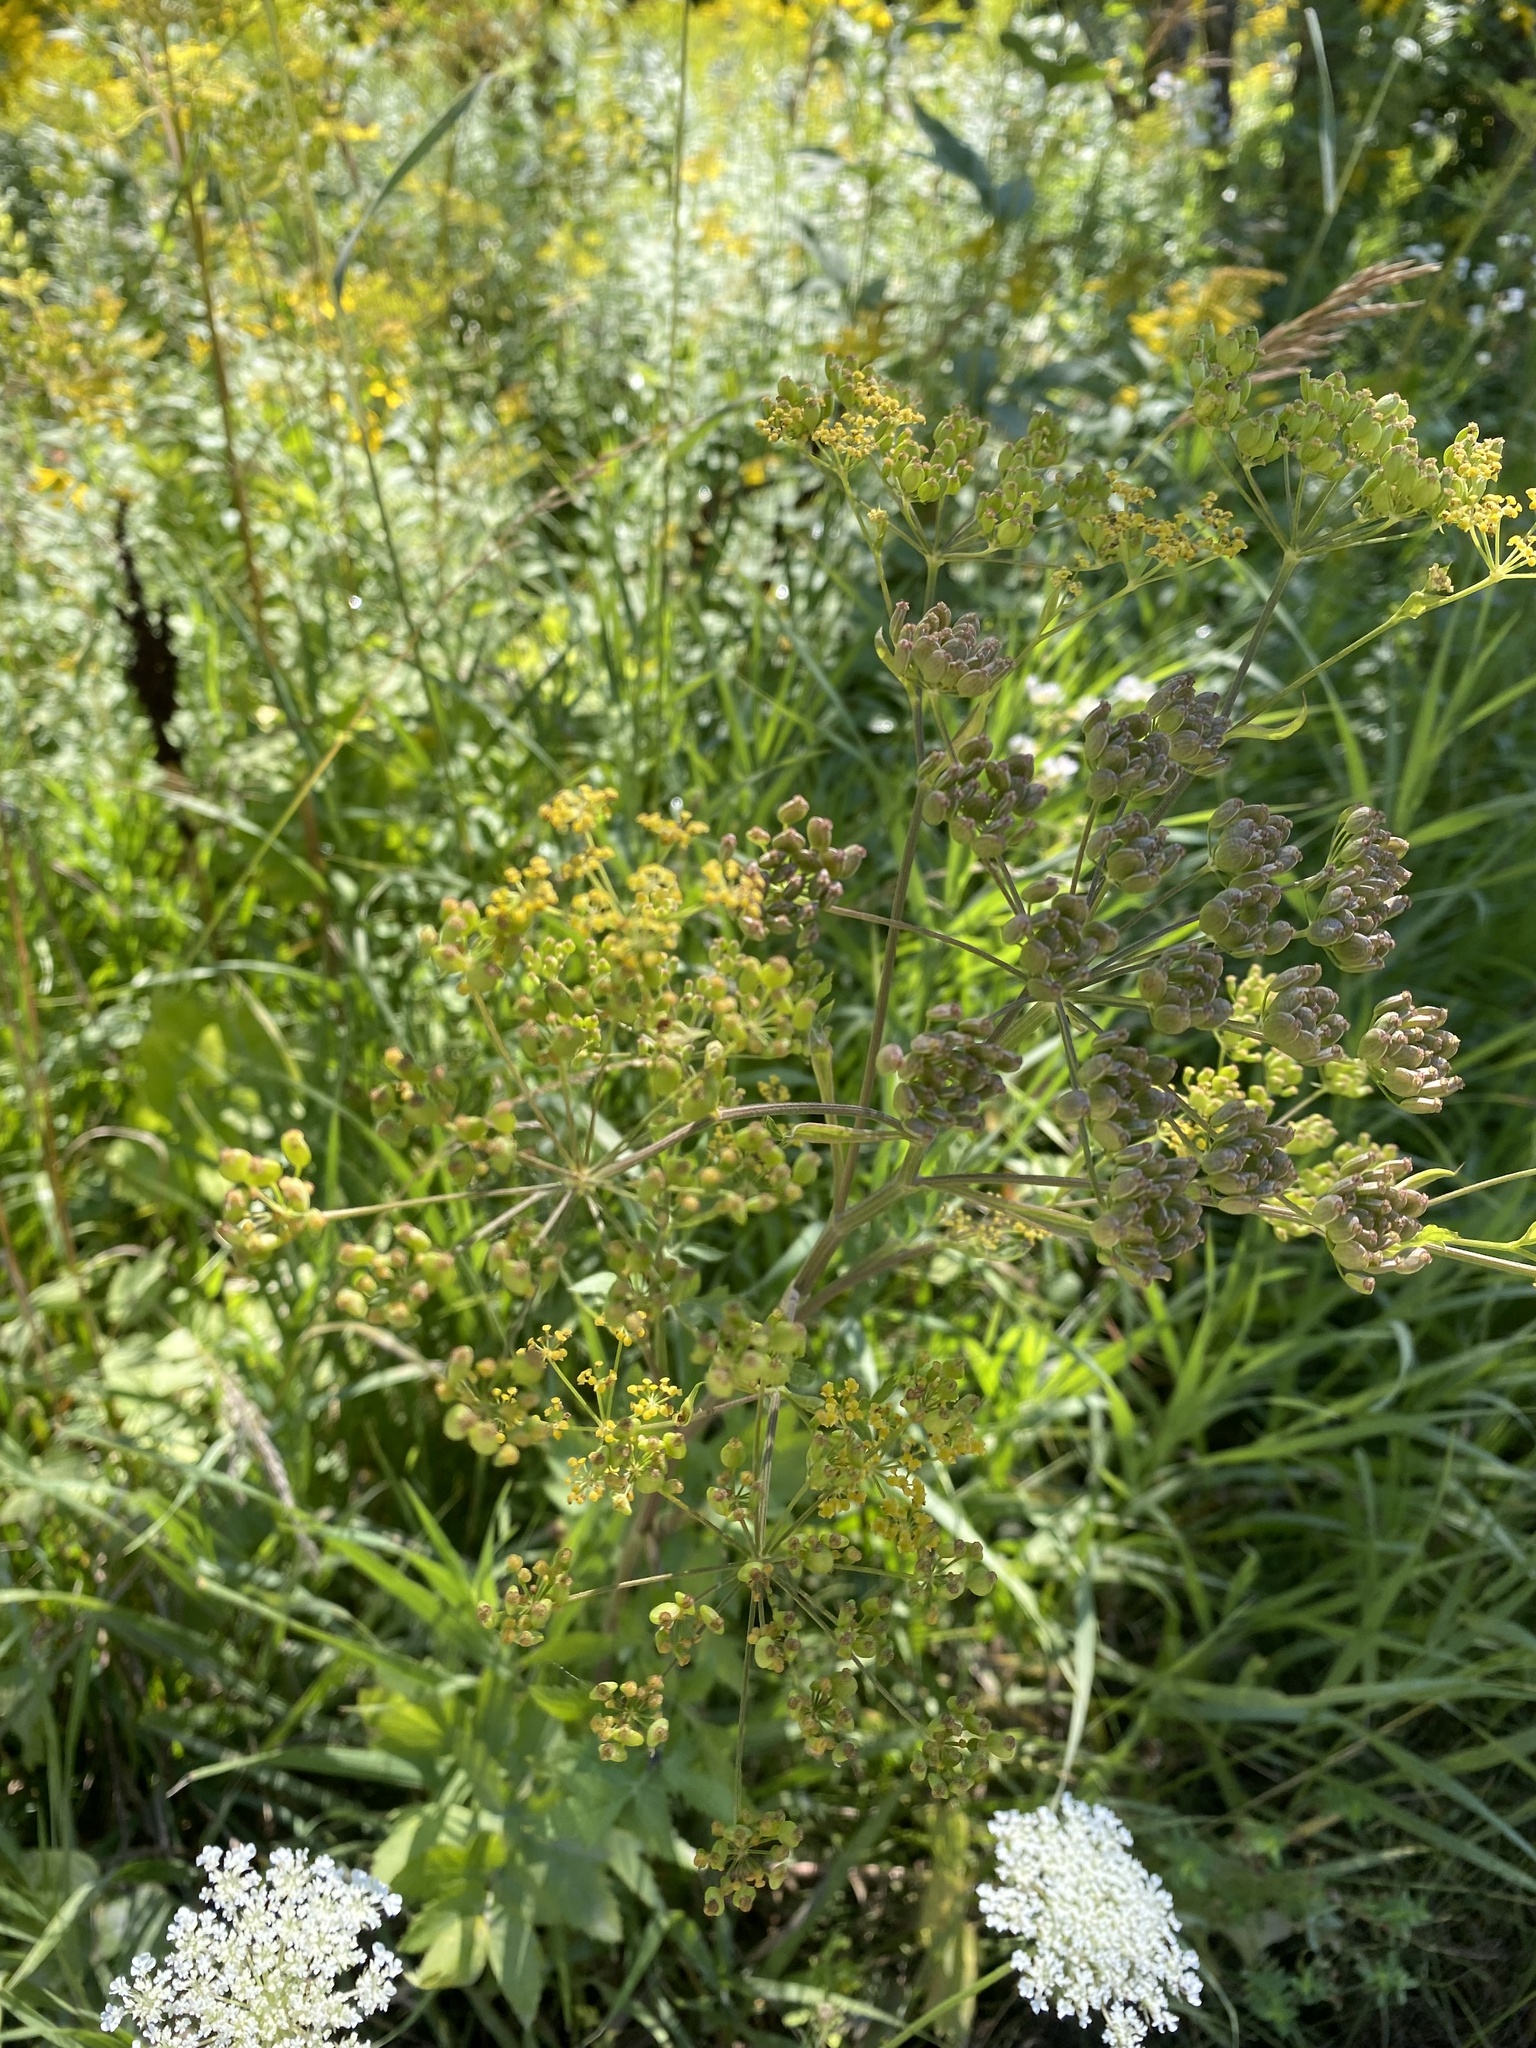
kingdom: Plantae
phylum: Tracheophyta
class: Magnoliopsida
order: Apiales
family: Apiaceae
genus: Pastinaca
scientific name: Pastinaca sativa
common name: Wild parsnip
